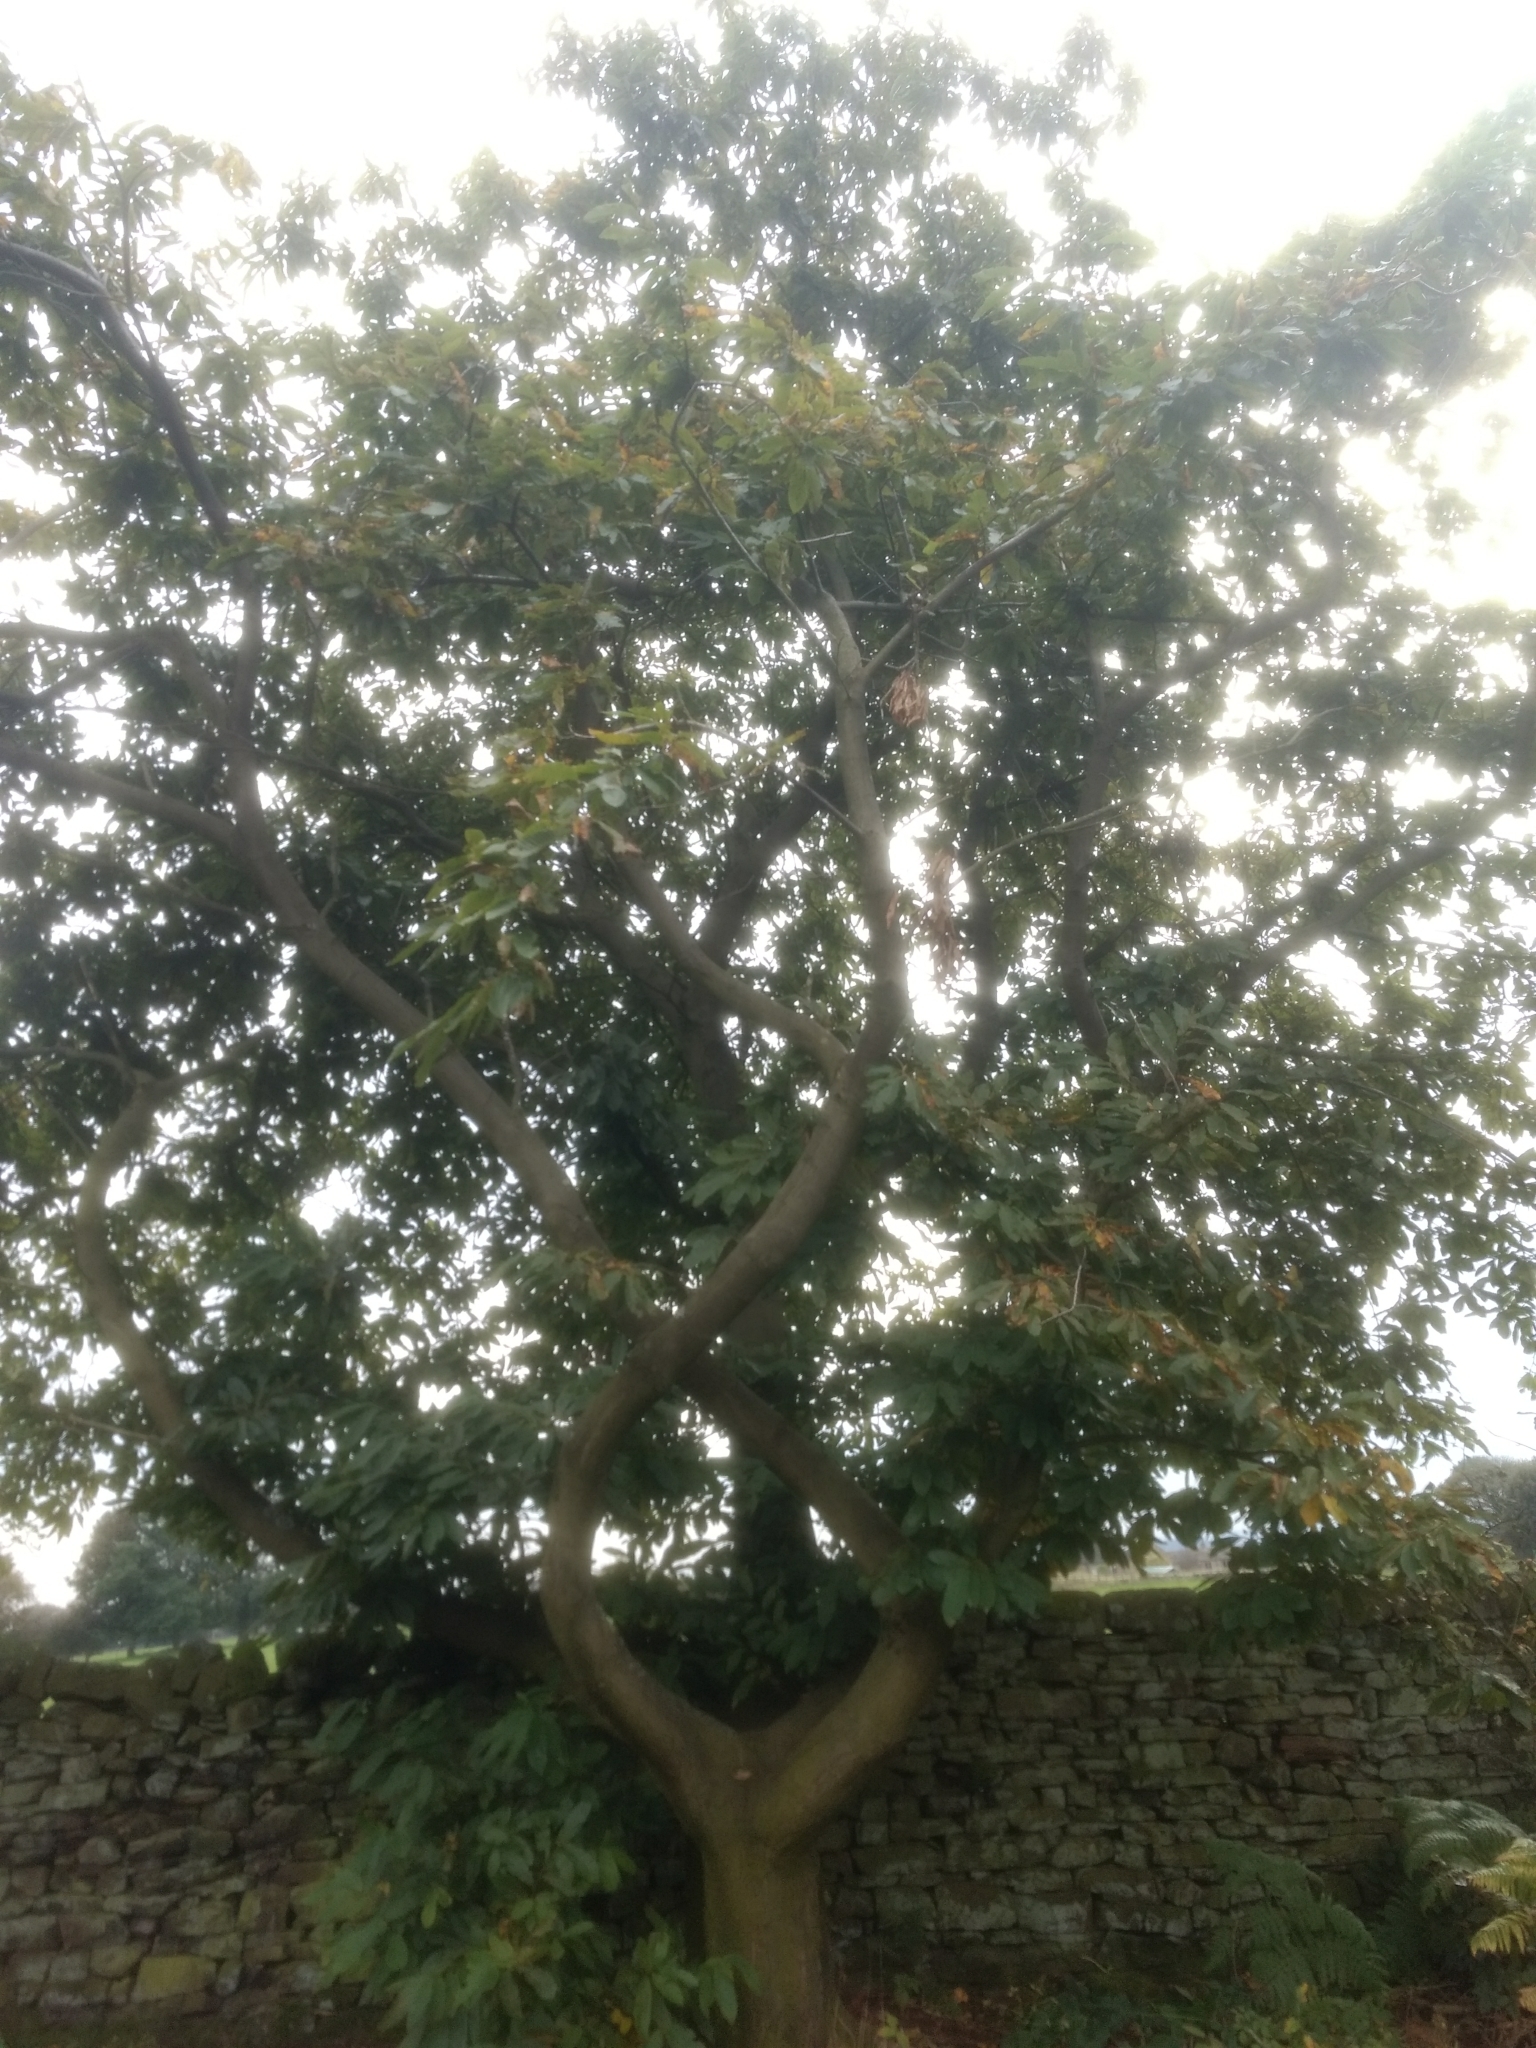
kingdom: Plantae
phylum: Tracheophyta
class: Magnoliopsida
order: Fagales
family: Fagaceae
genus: Castanea
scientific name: Castanea sativa
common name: Sweet chestnut
